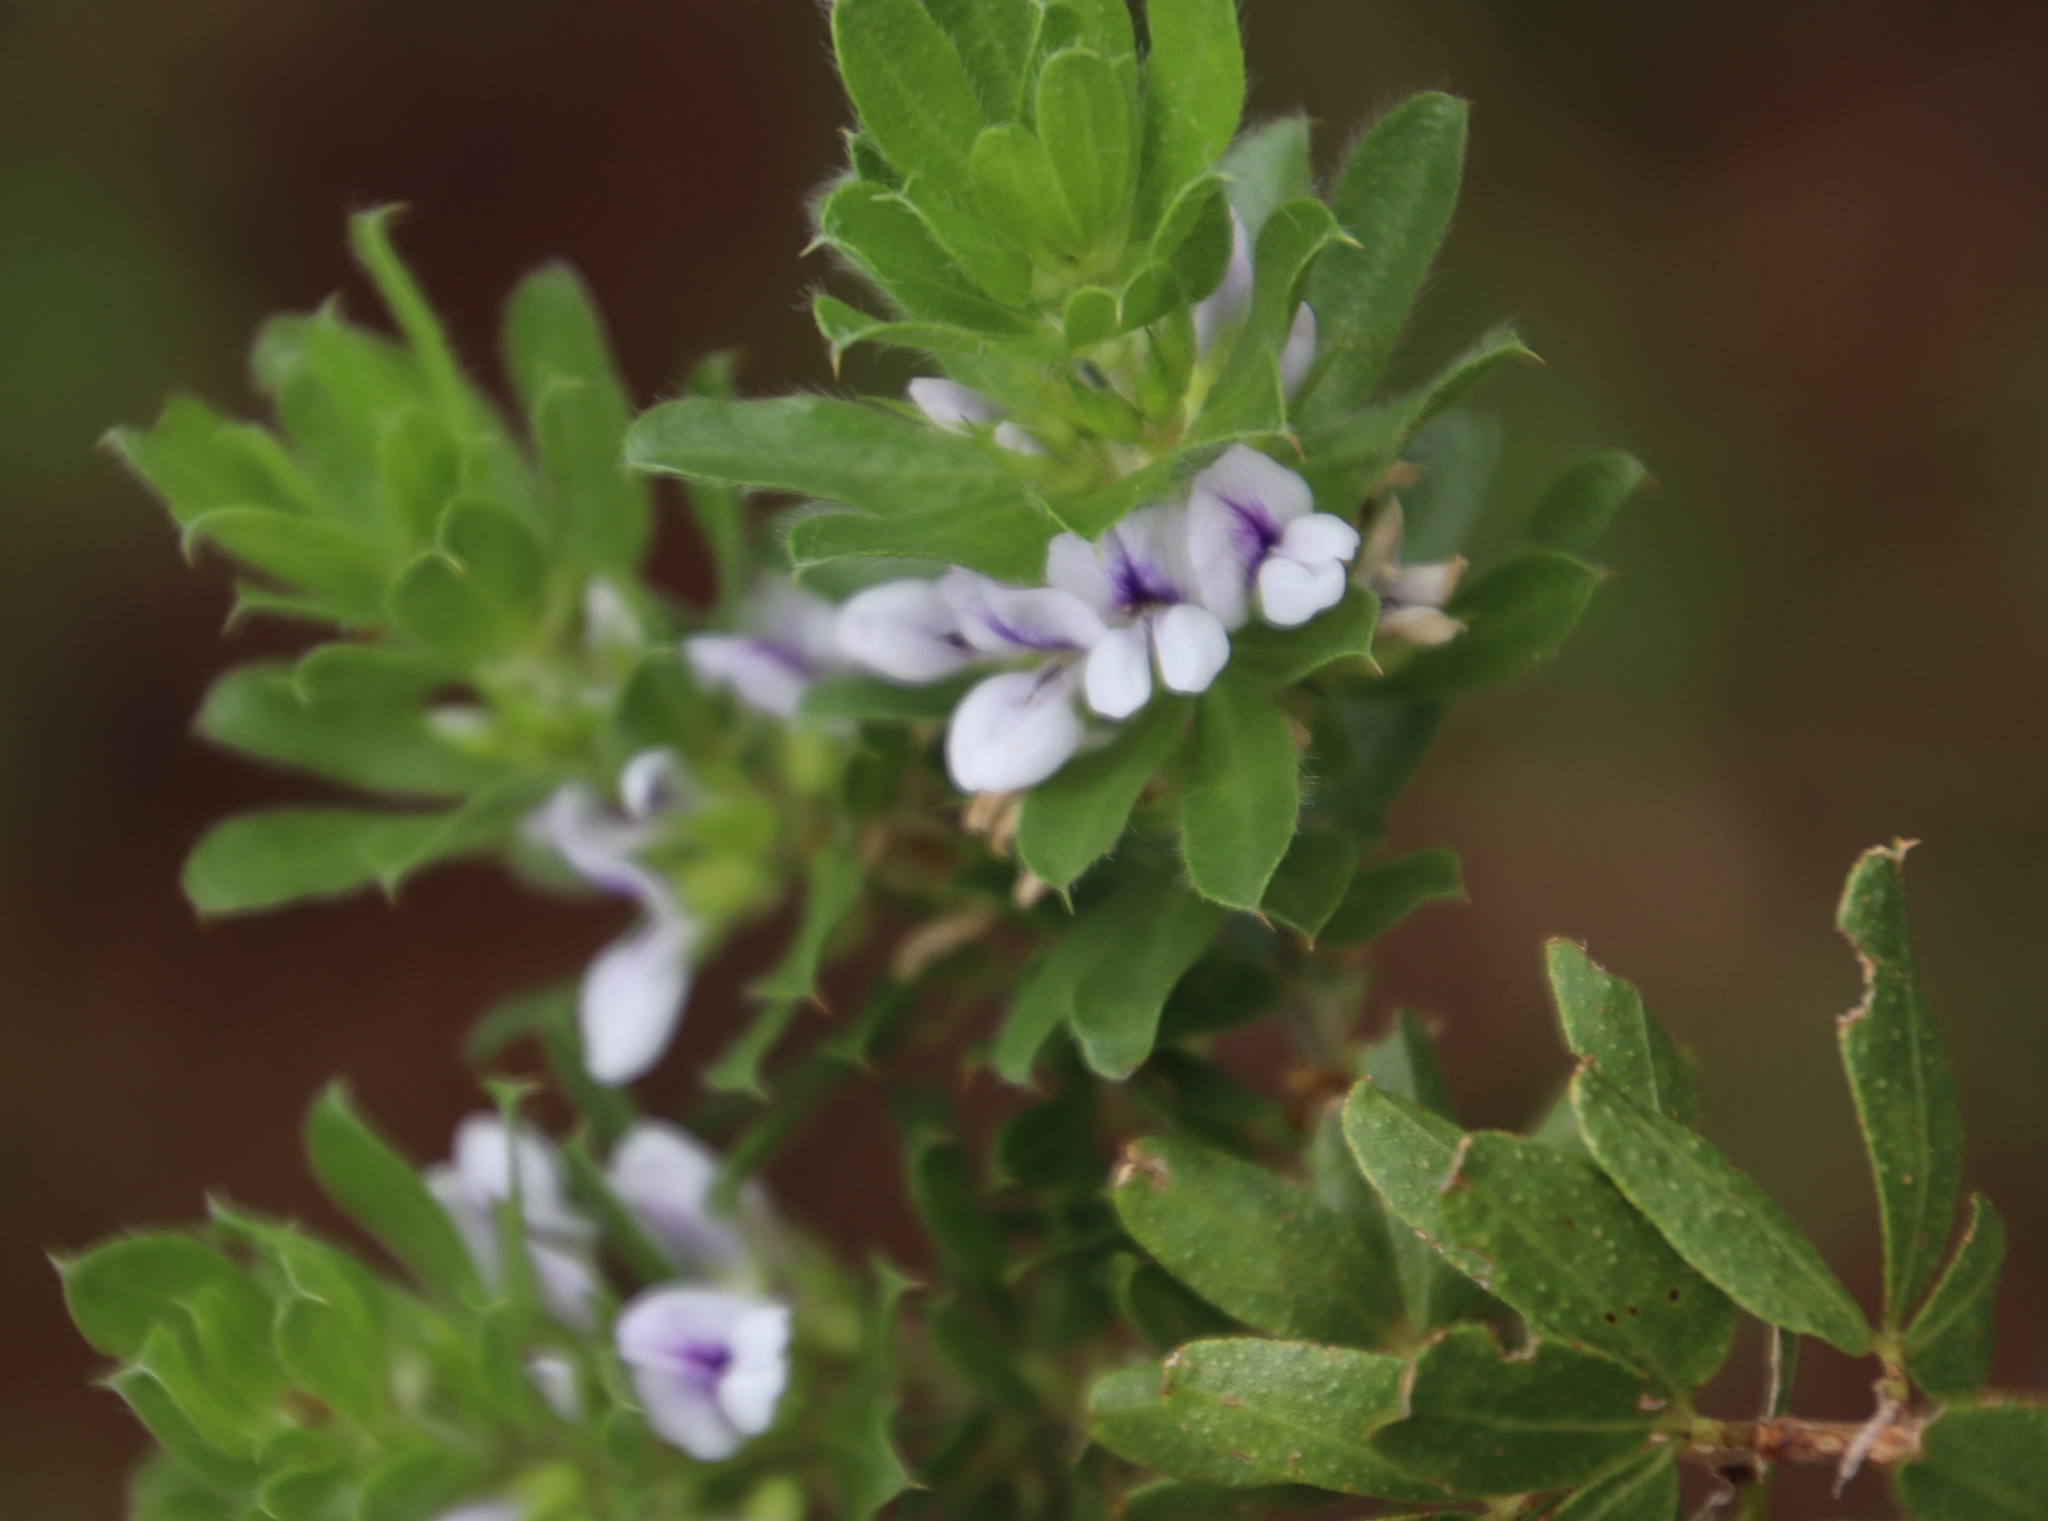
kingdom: Plantae
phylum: Tracheophyta
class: Magnoliopsida
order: Fabales
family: Fabaceae
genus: Psoralea
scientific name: Psoralea obliqua
